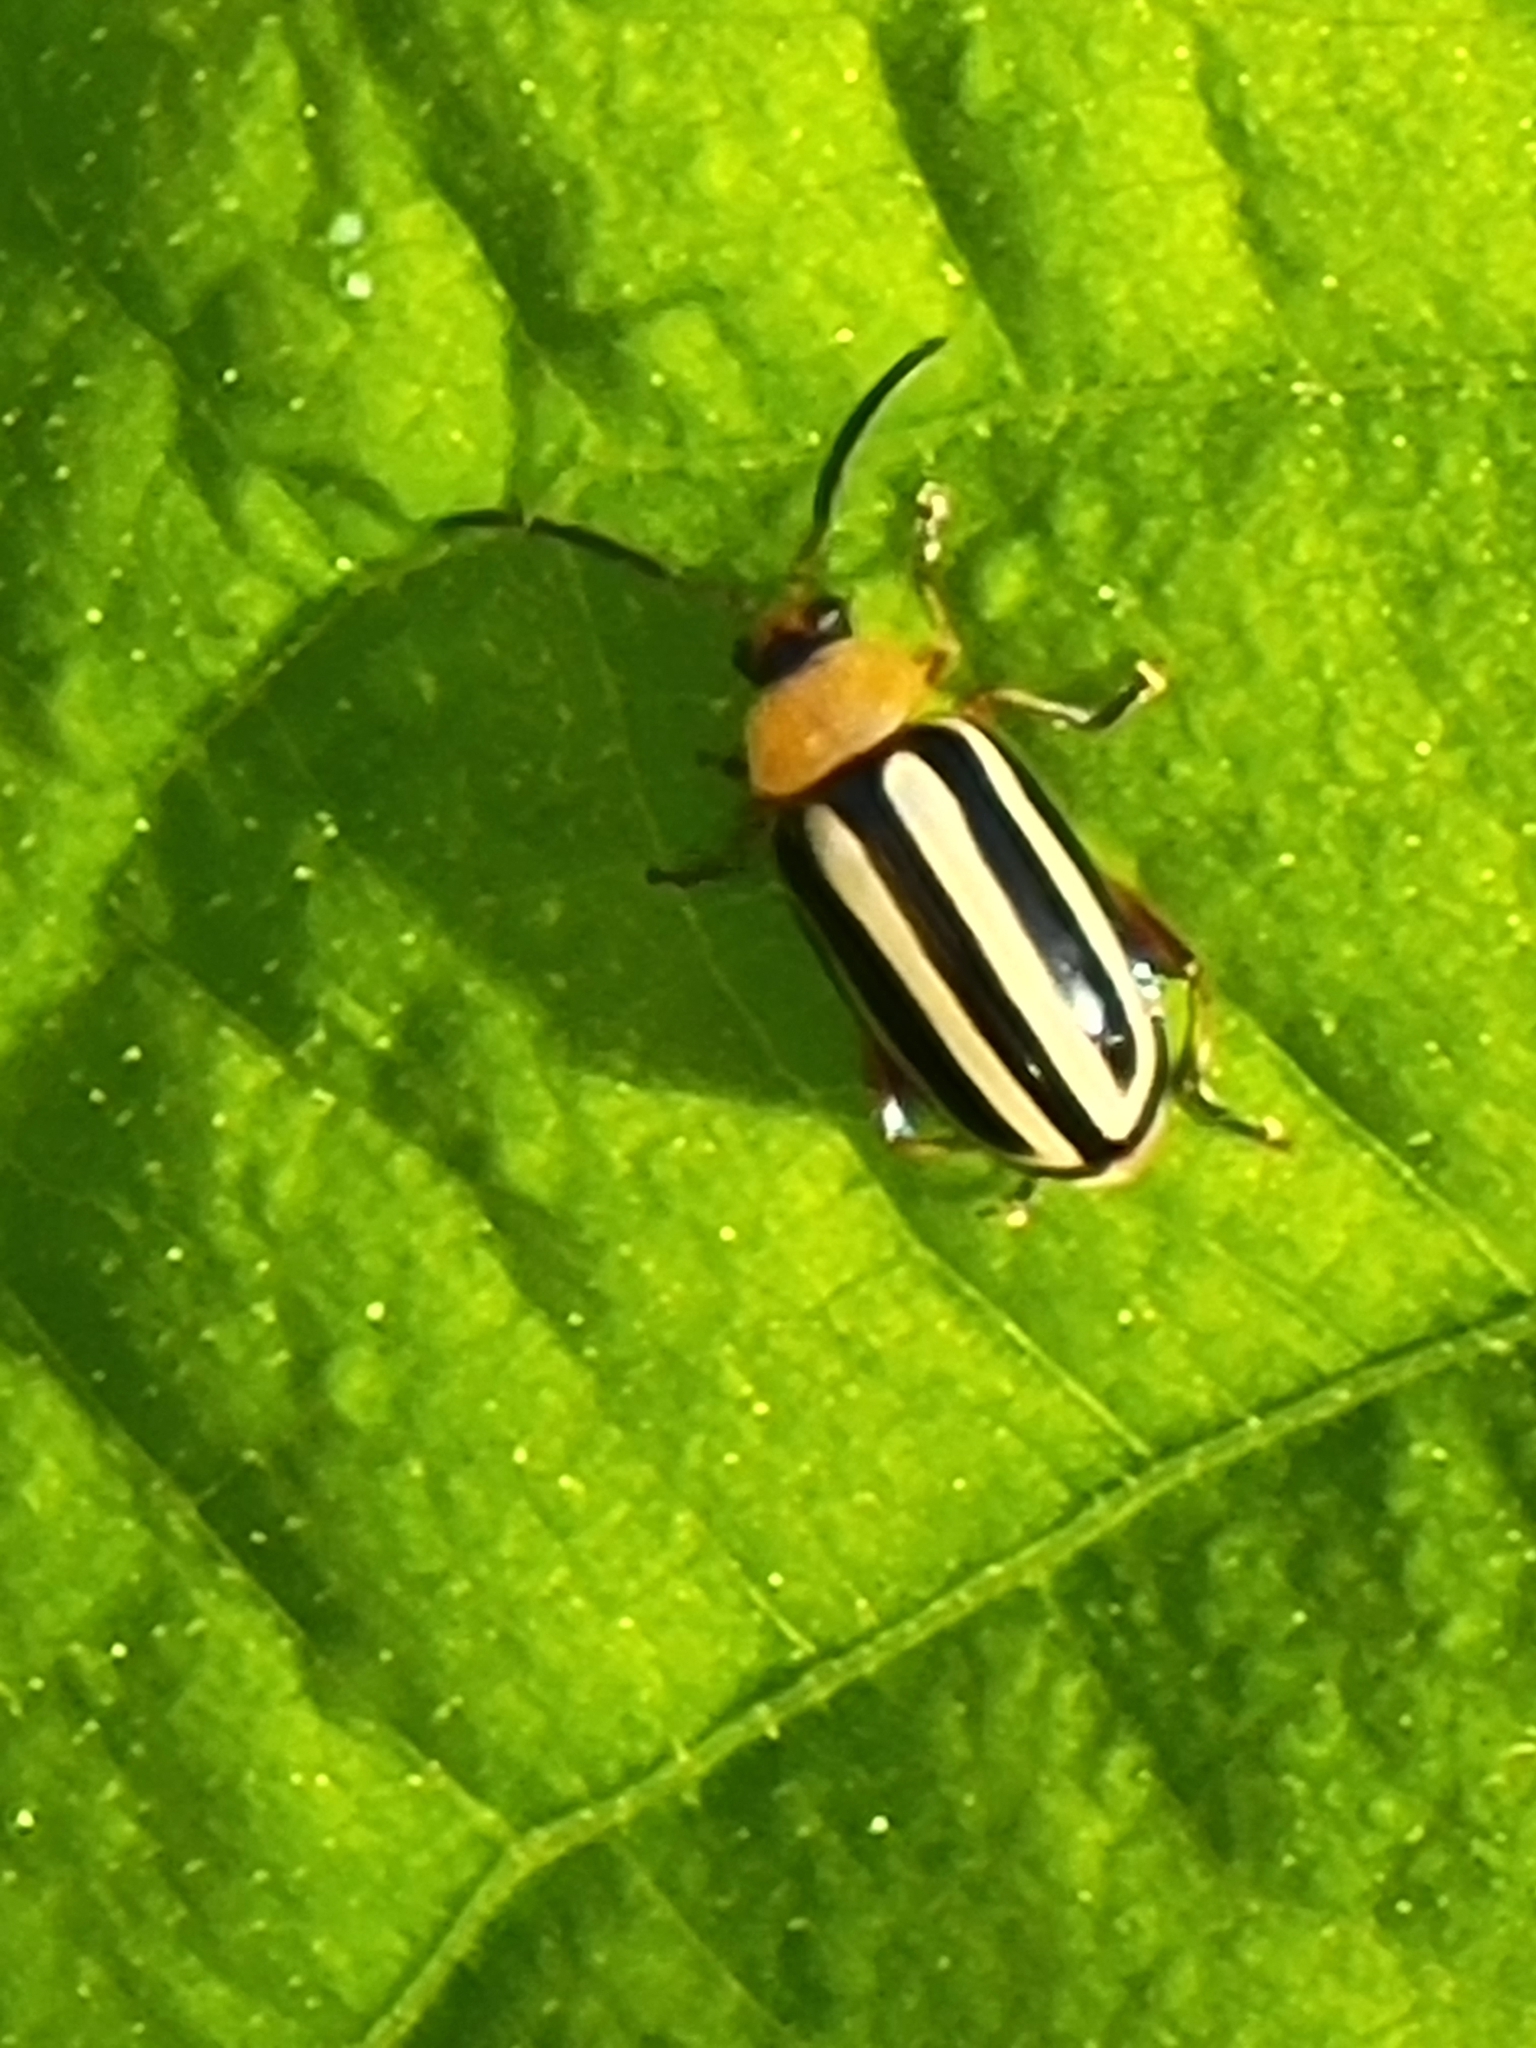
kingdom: Animalia
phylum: Arthropoda
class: Insecta
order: Coleoptera
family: Chrysomelidae
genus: Disonycha
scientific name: Disonycha glabrata
